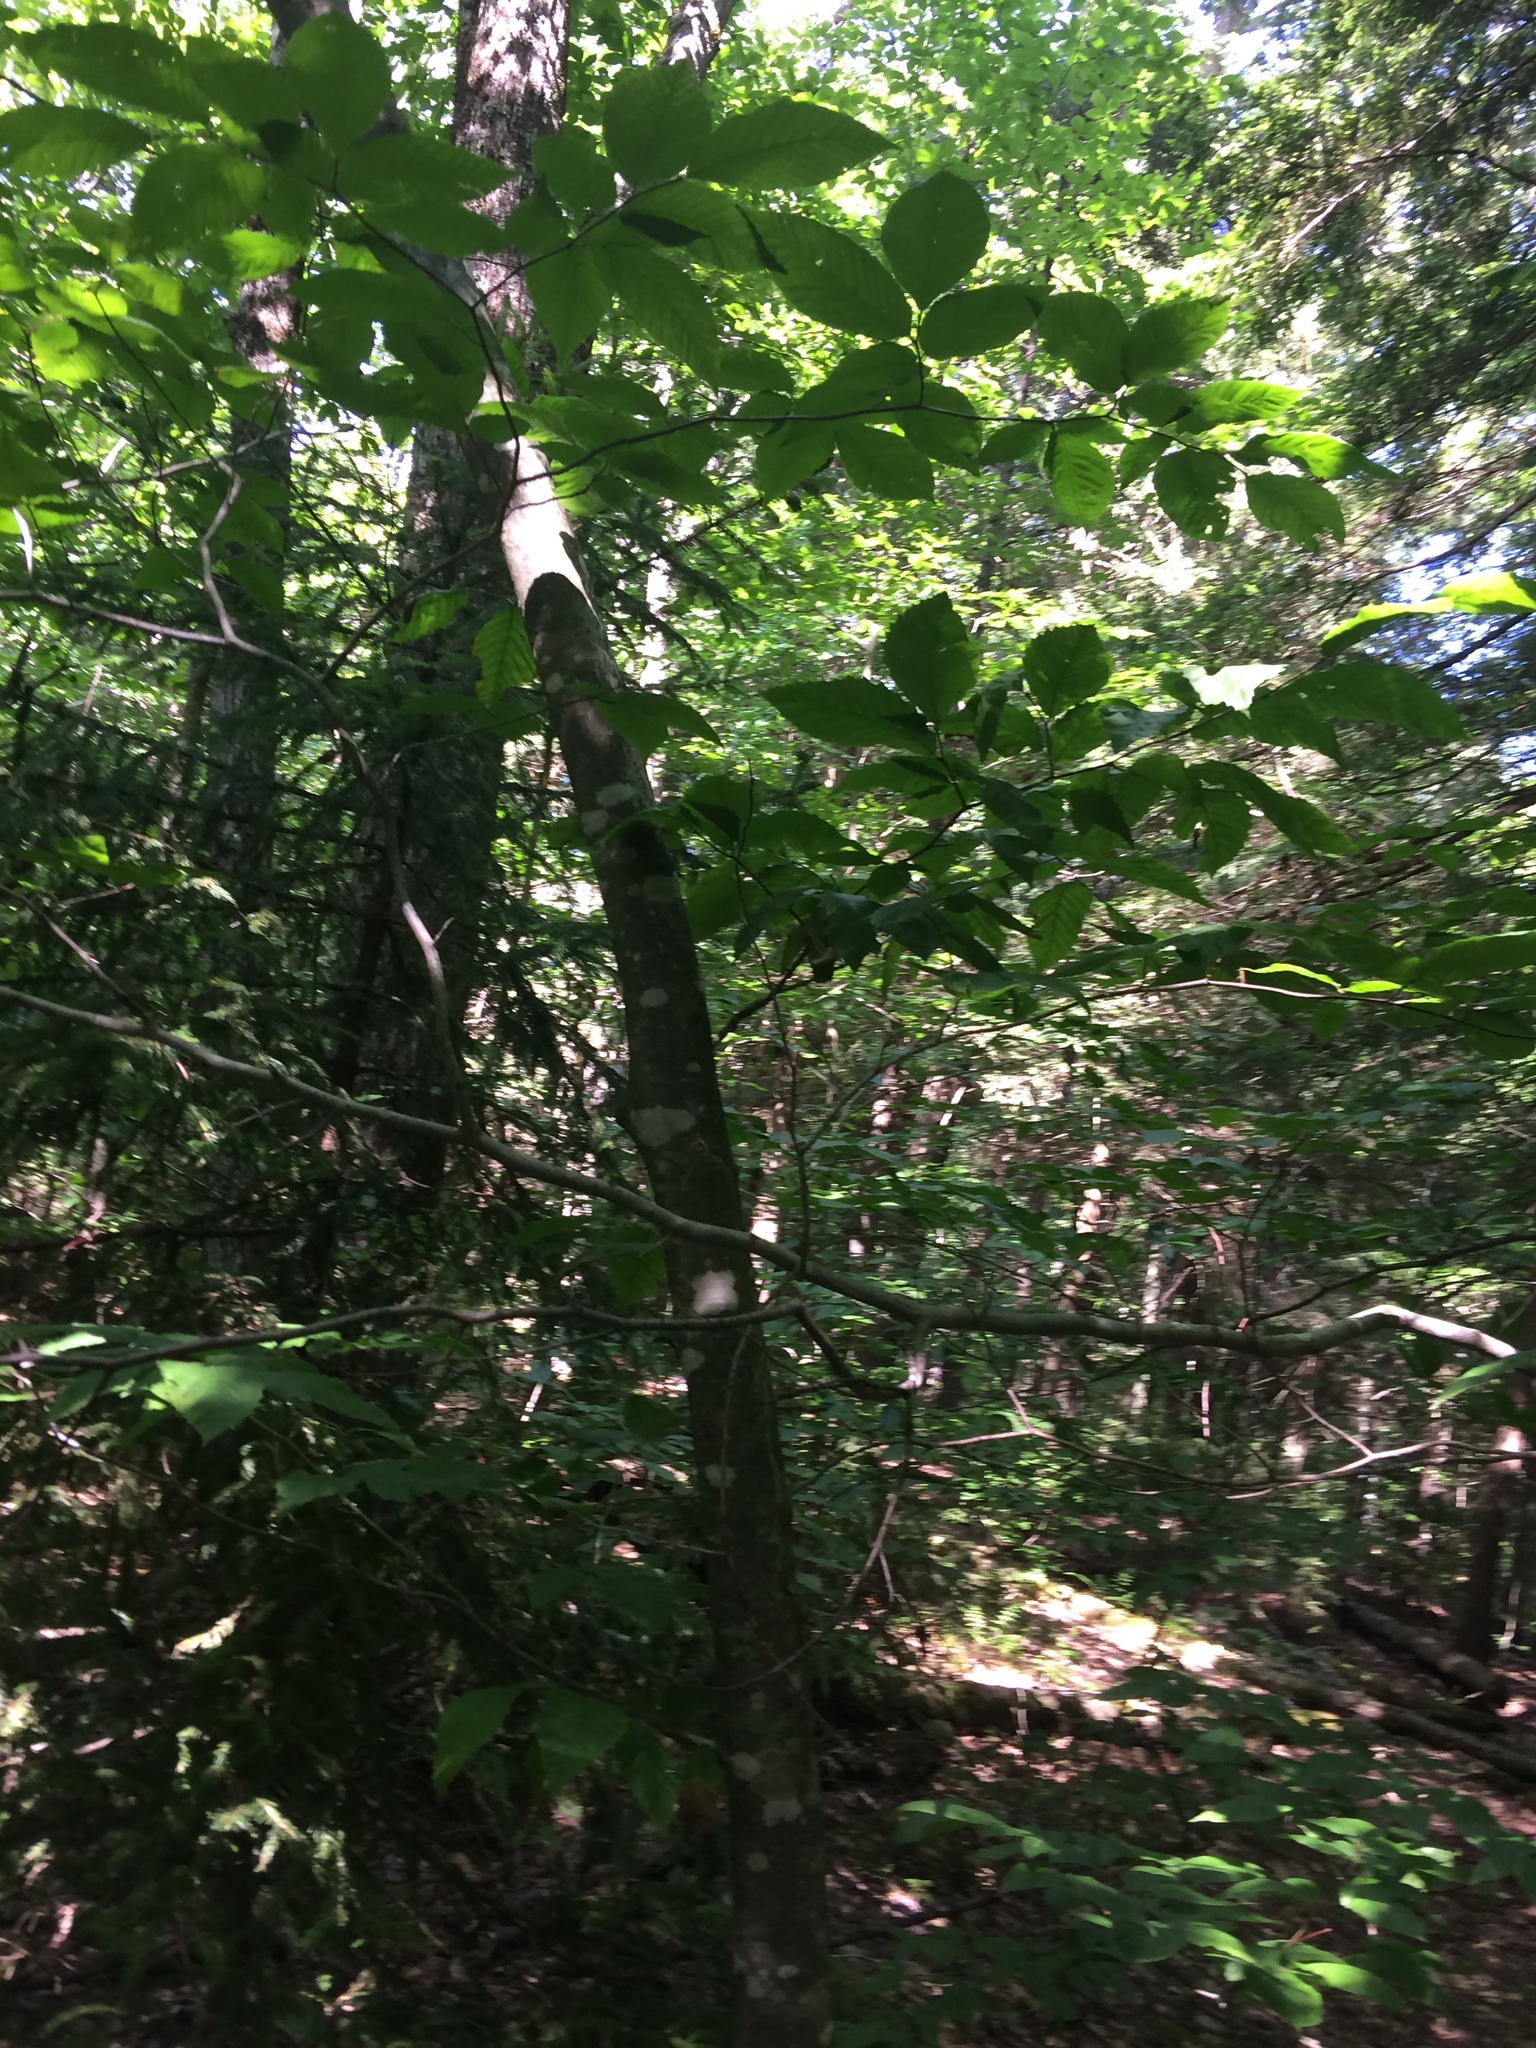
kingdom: Plantae
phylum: Tracheophyta
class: Magnoliopsida
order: Fagales
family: Fagaceae
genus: Fagus
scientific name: Fagus grandifolia
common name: American beech
